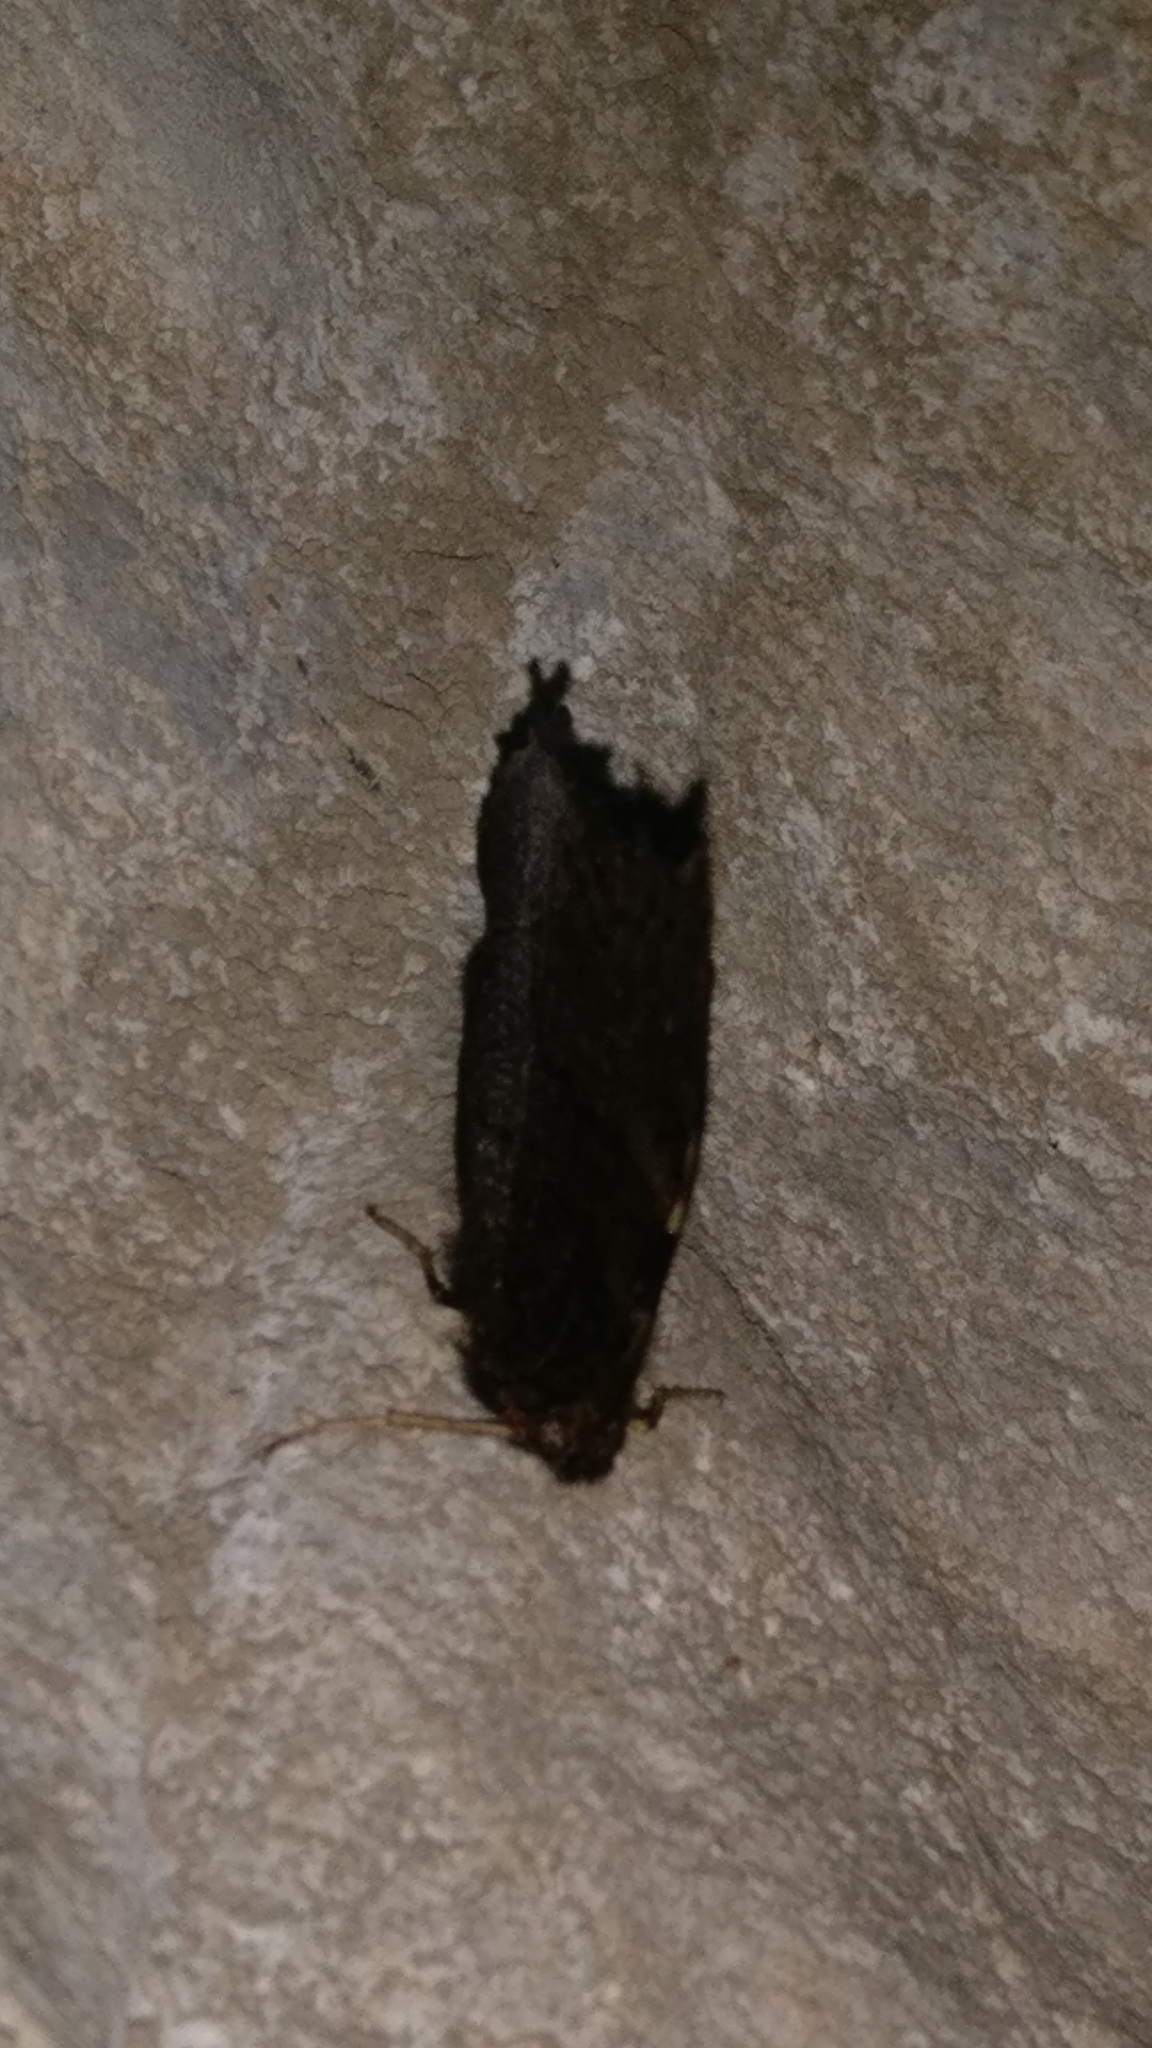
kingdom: Animalia
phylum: Arthropoda
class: Insecta
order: Lepidoptera
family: Nymphalidae
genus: Aglais
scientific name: Aglais io
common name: Peacock
